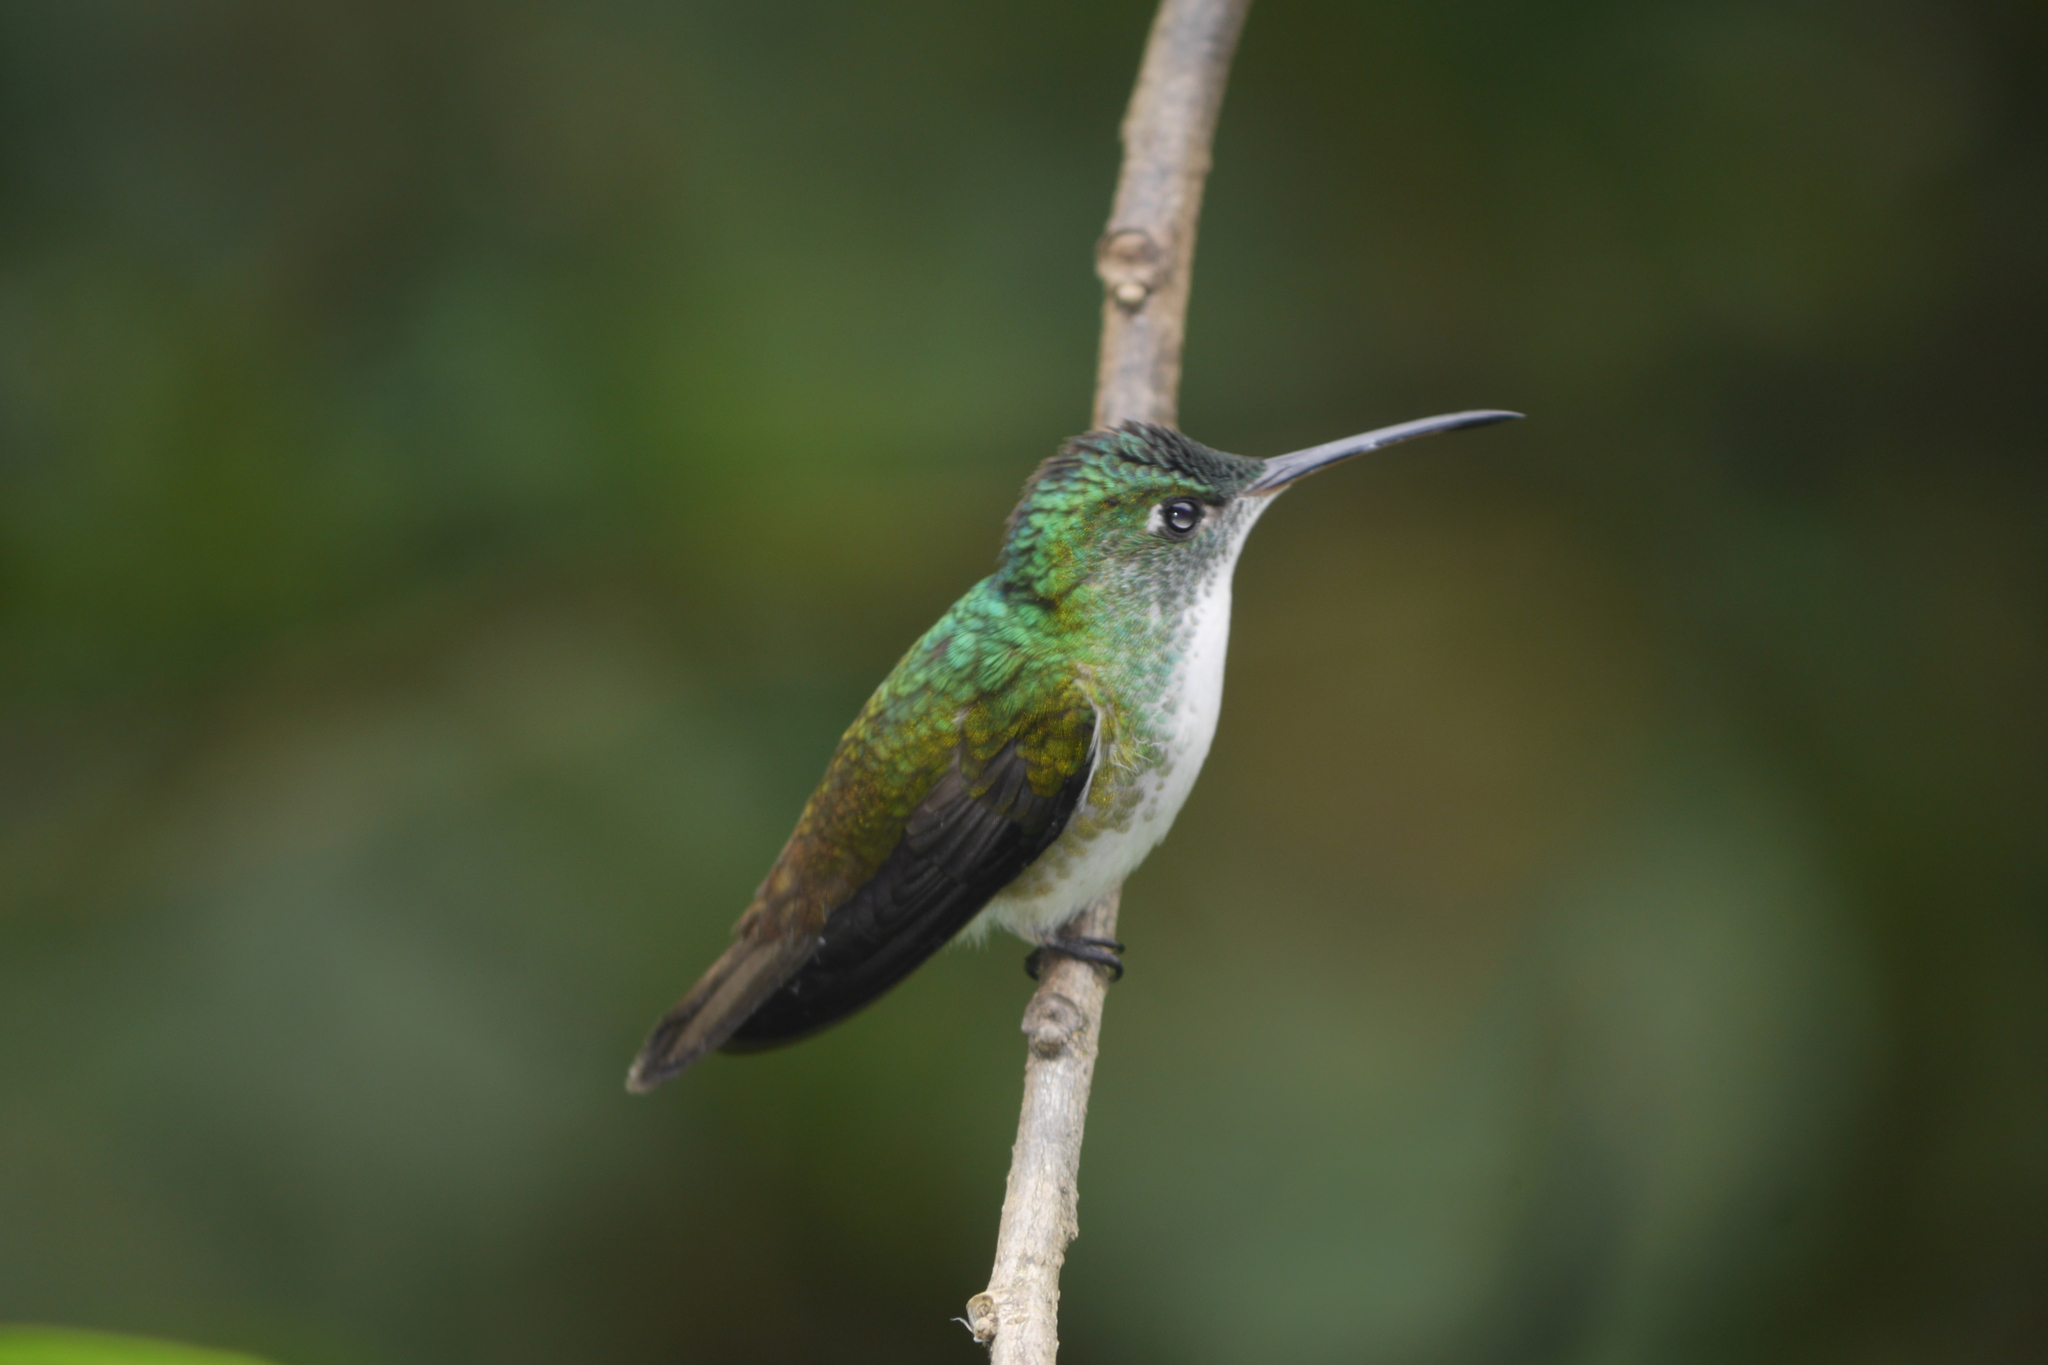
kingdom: Animalia
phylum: Chordata
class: Aves
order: Apodiformes
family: Trochilidae
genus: Uranomitra
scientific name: Uranomitra franciae
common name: Andean emerald
